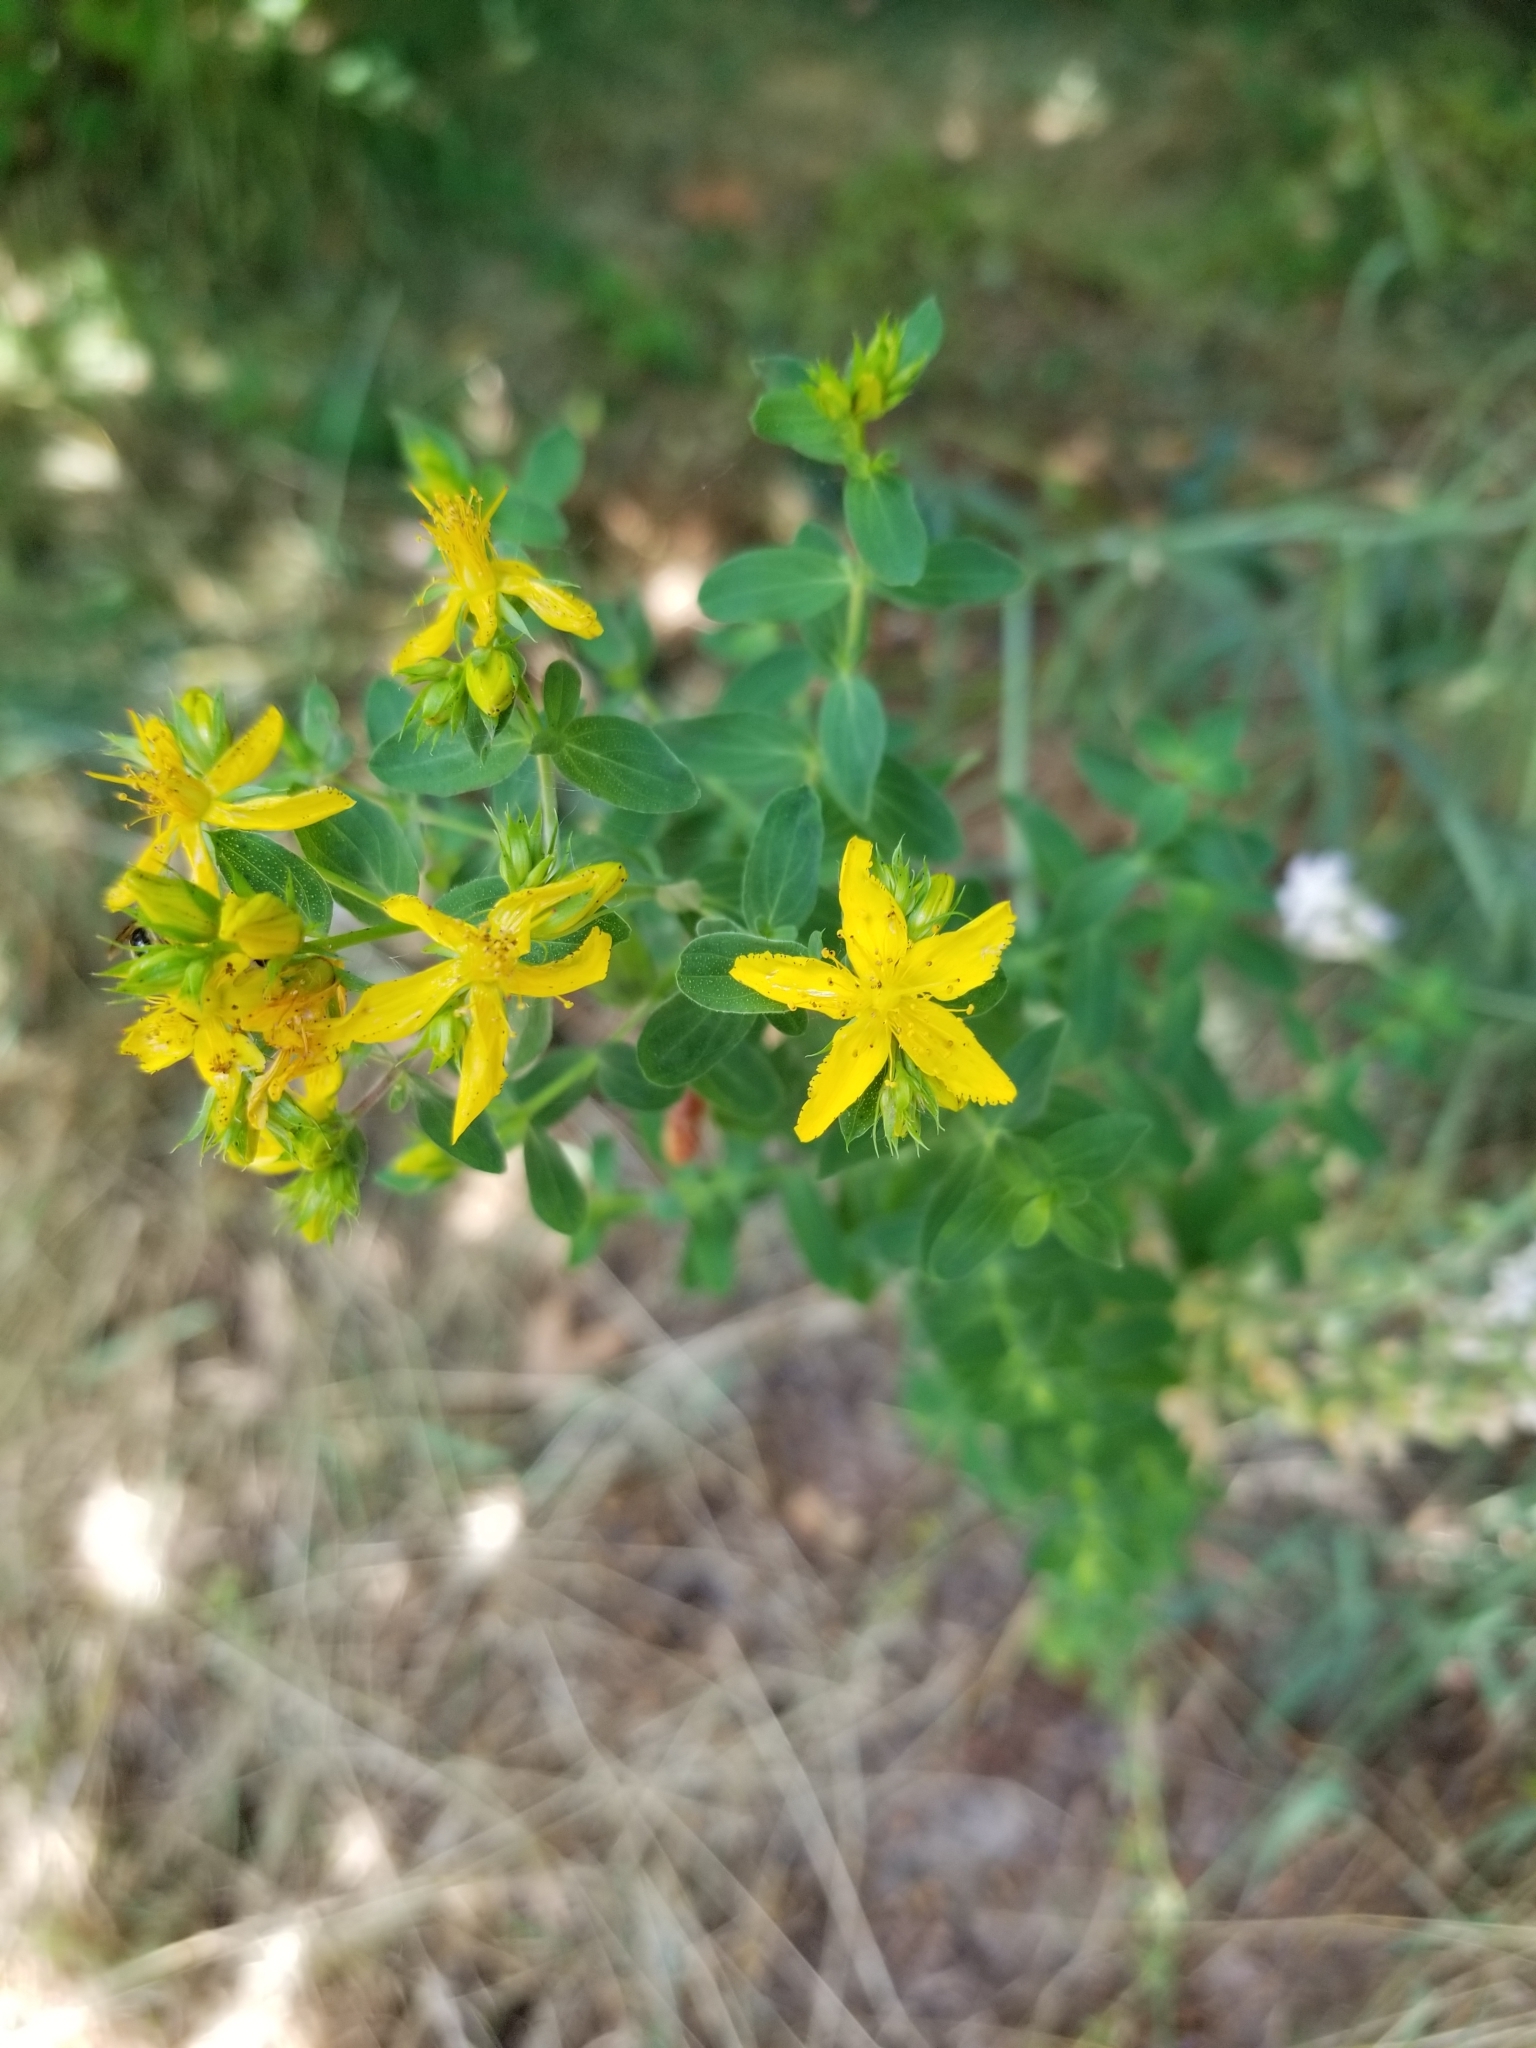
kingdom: Plantae
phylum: Tracheophyta
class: Magnoliopsida
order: Malpighiales
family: Hypericaceae
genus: Hypericum
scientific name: Hypericum perforatum
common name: Common st. johnswort
